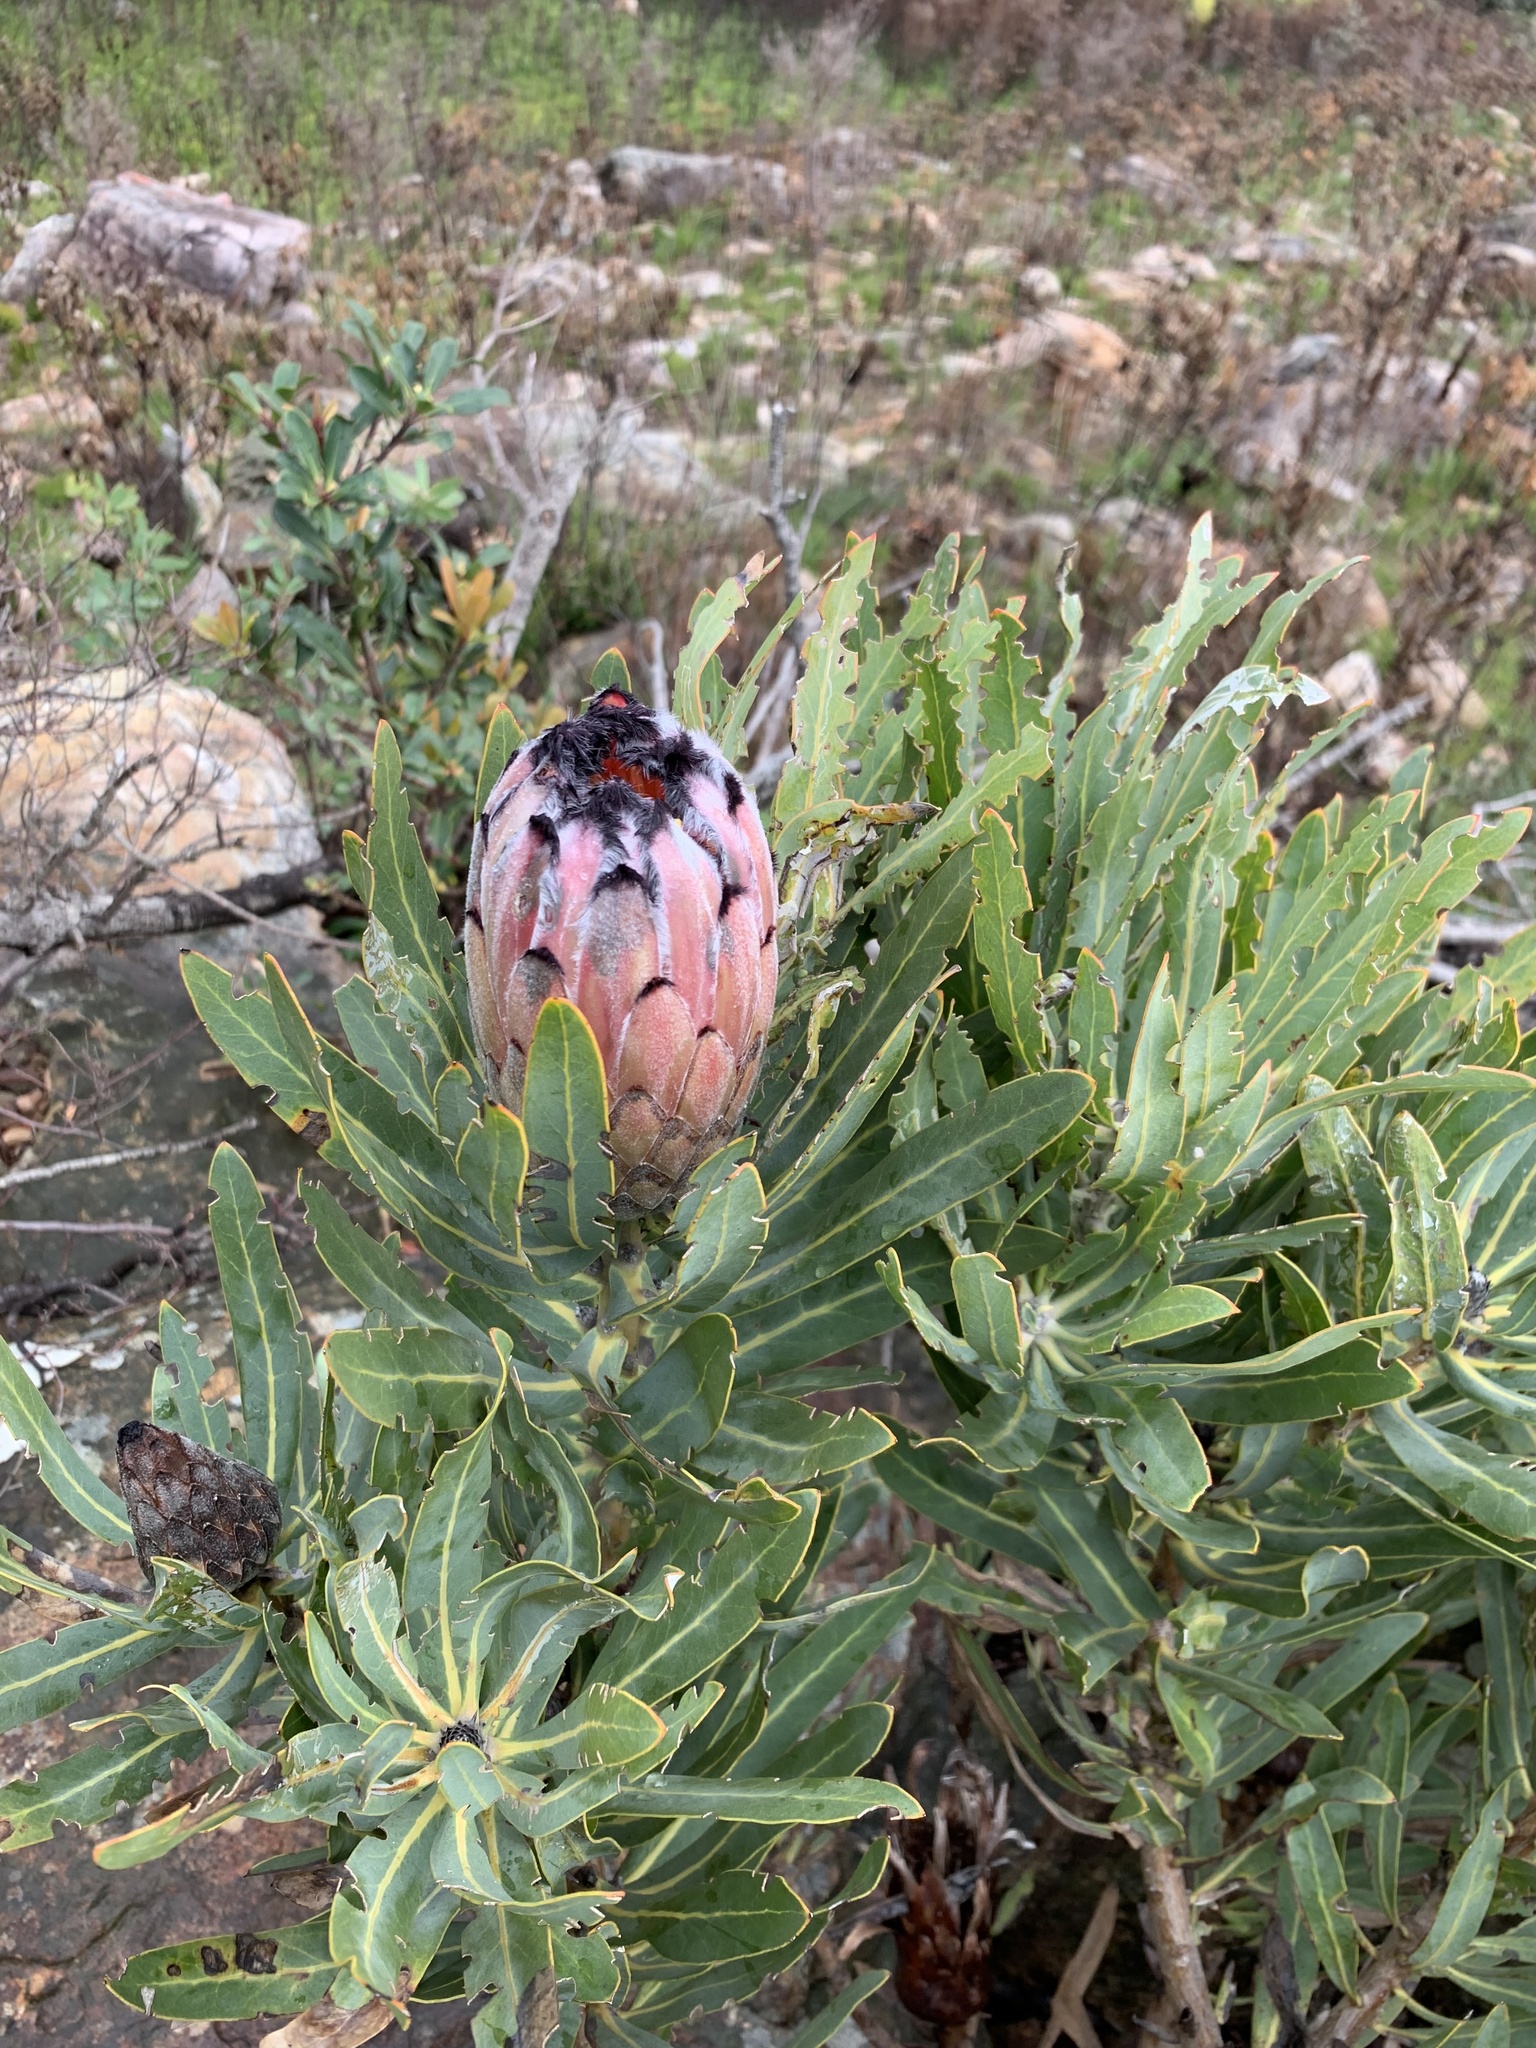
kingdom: Plantae
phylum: Tracheophyta
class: Magnoliopsida
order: Proteales
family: Proteaceae
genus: Protea
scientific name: Protea neriifolia
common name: Blue sugarbush
